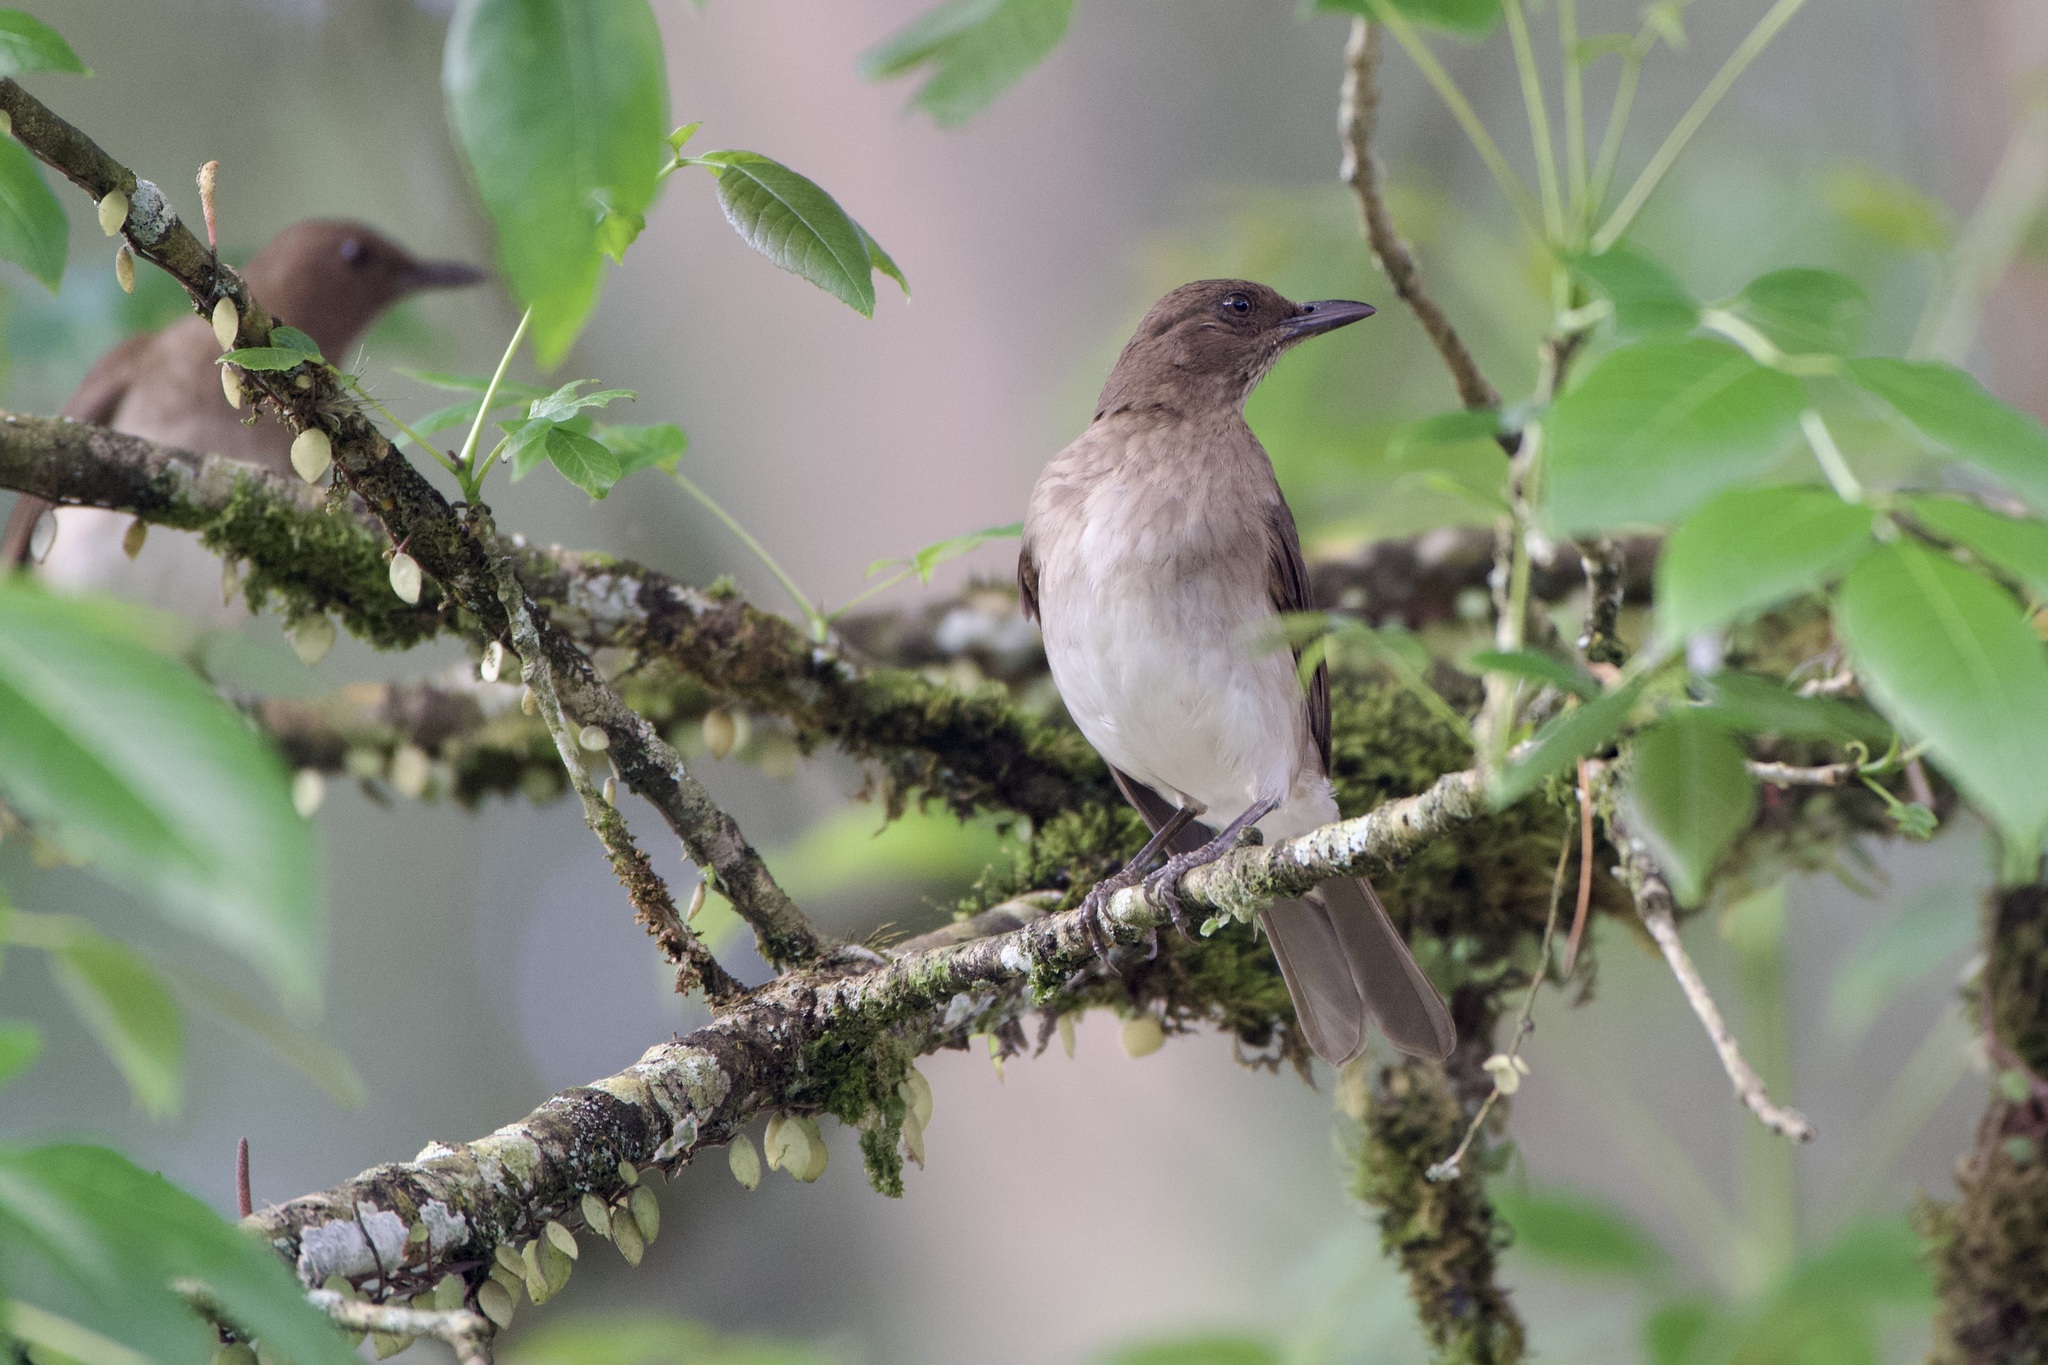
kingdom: Animalia
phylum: Chordata
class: Aves
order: Passeriformes
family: Turdidae
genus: Turdus
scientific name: Turdus ignobilis
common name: Black-billed thrush
